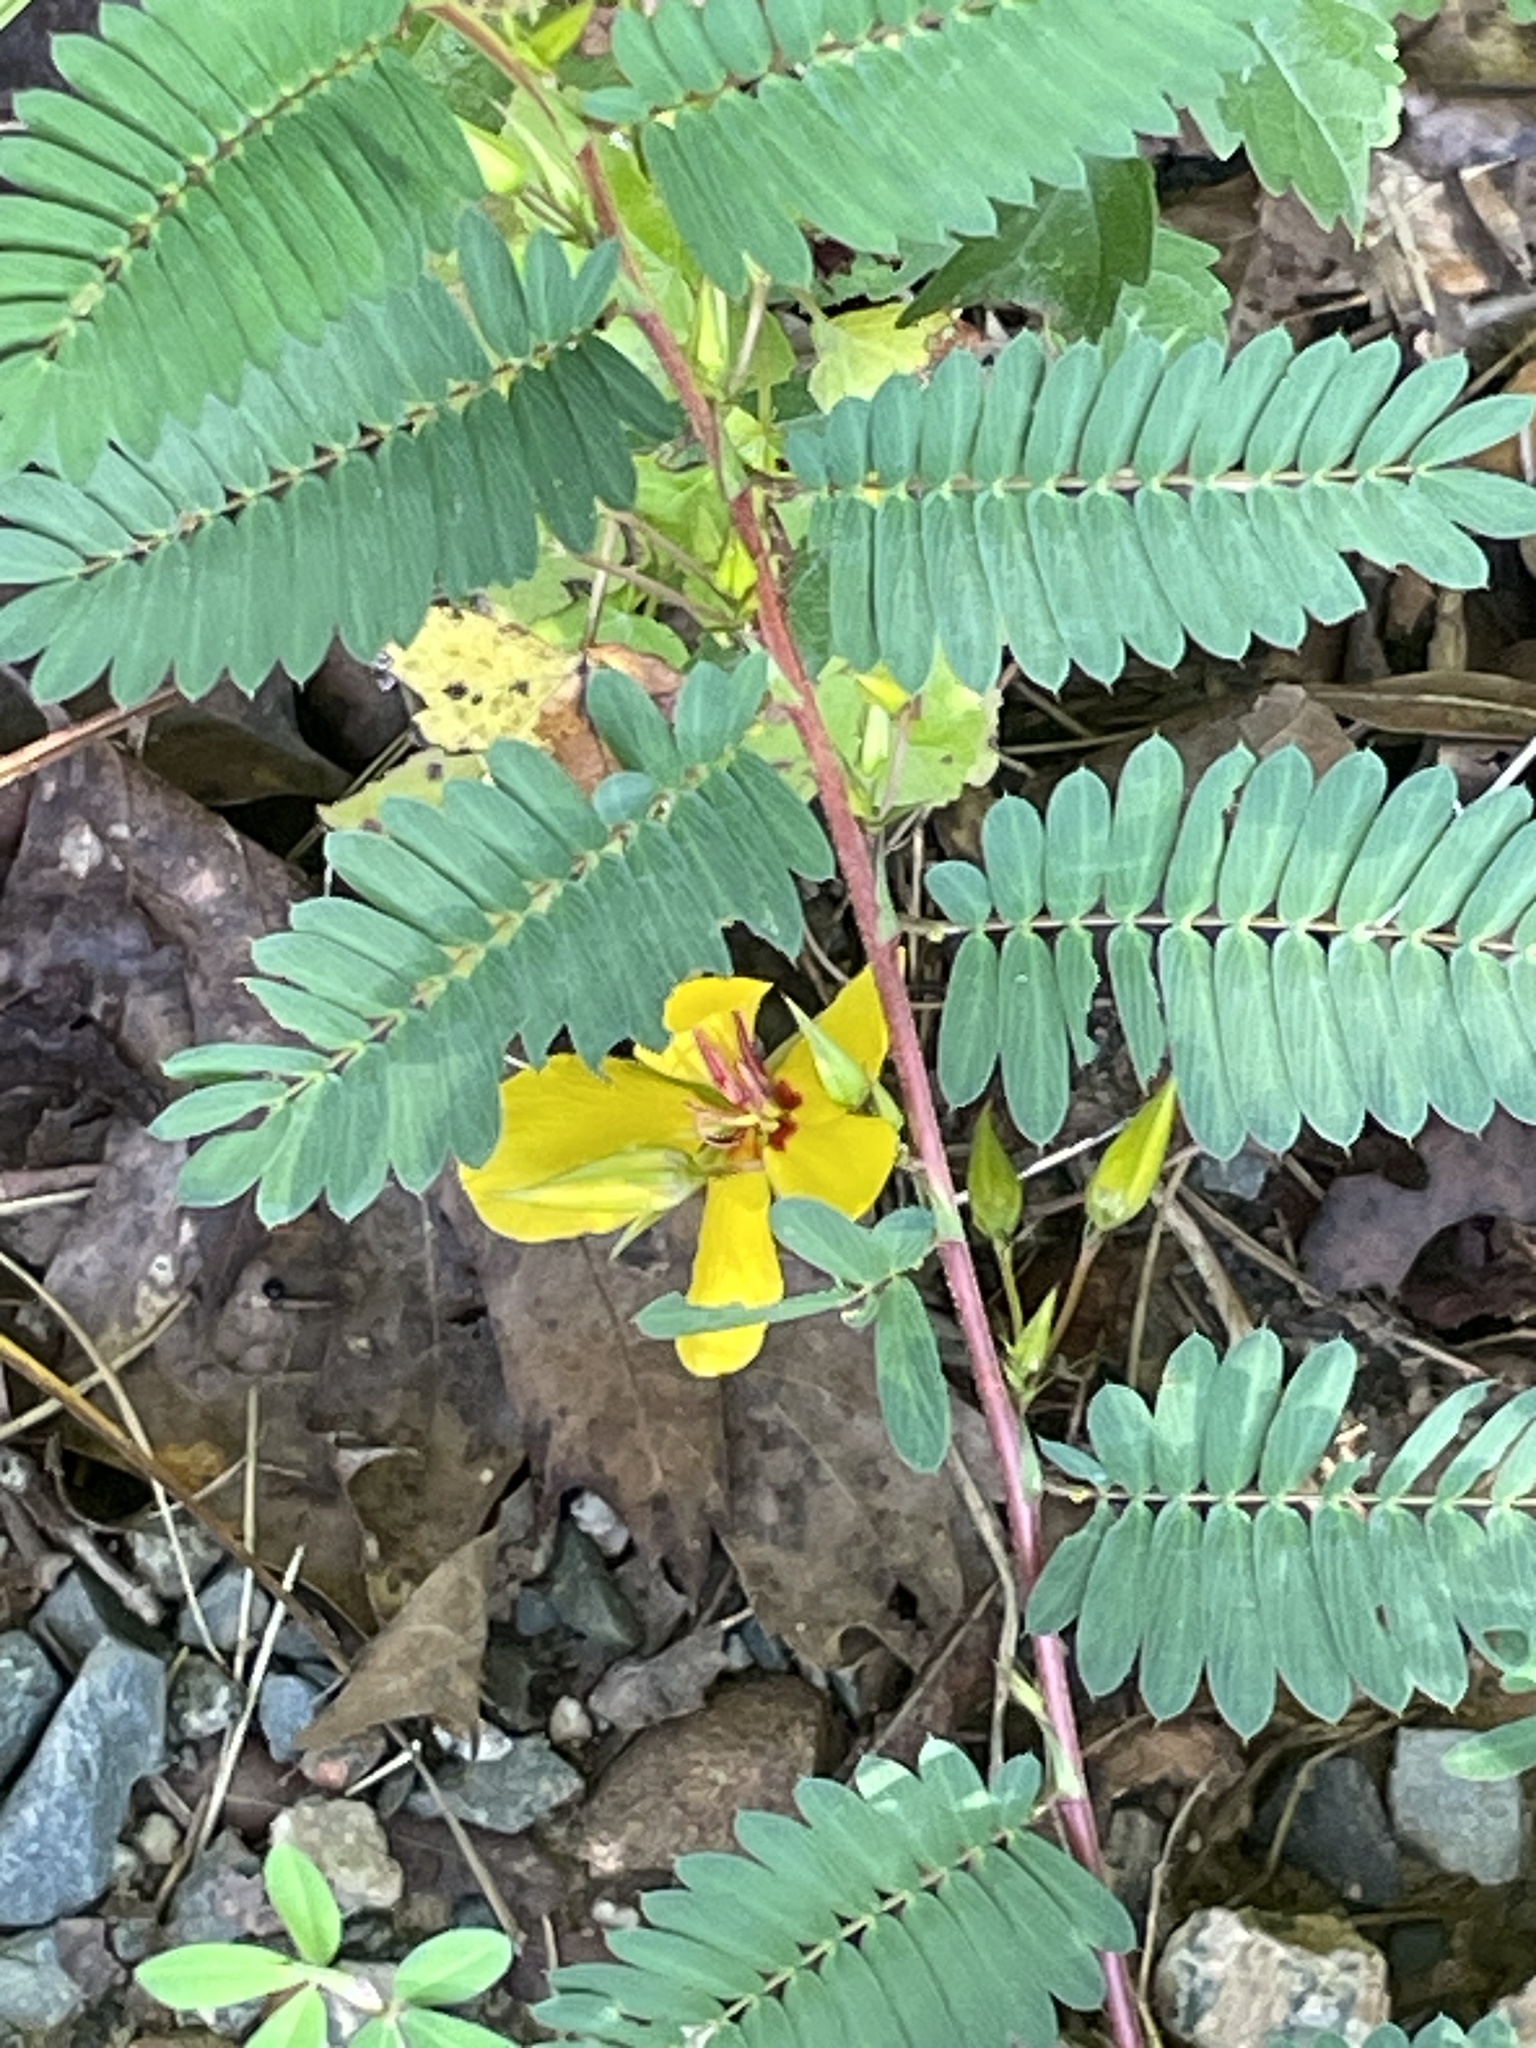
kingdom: Plantae
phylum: Tracheophyta
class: Magnoliopsida
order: Fabales
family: Fabaceae
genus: Chamaecrista
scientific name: Chamaecrista fasciculata
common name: Golden cassia
